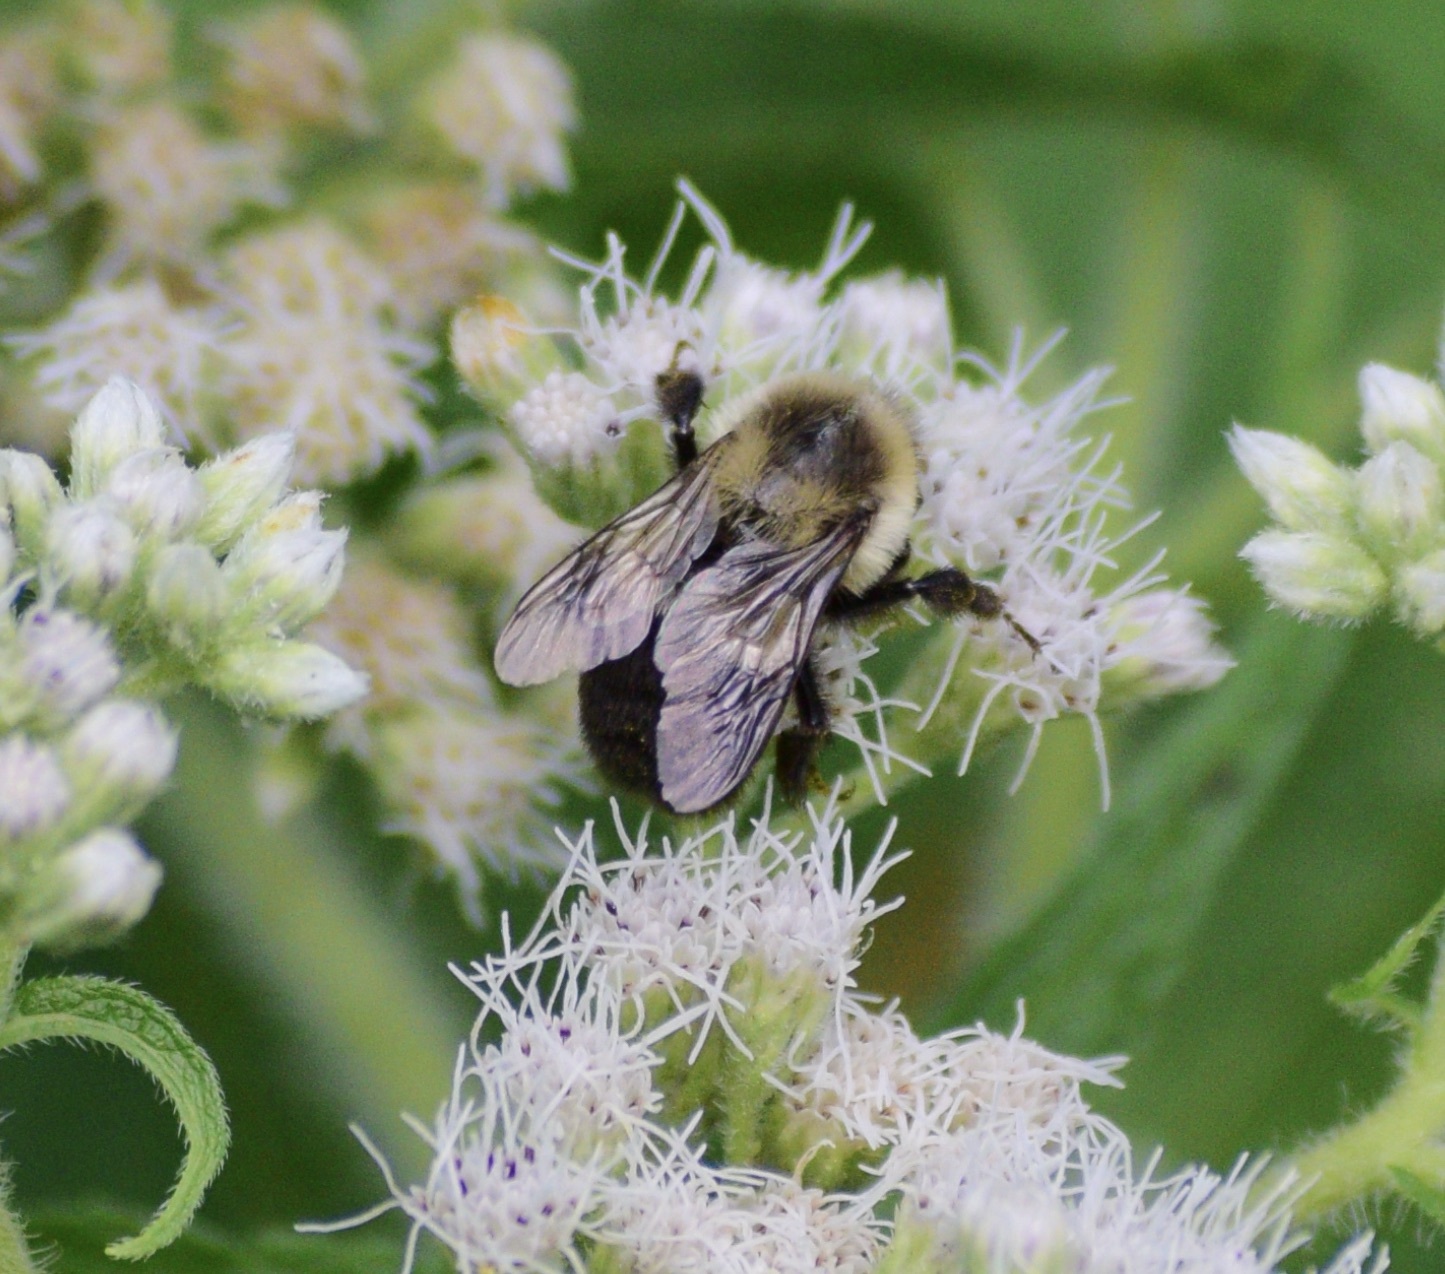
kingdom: Animalia
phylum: Arthropoda
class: Insecta
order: Hymenoptera
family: Apidae
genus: Bombus
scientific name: Bombus impatiens
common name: Common eastern bumble bee
